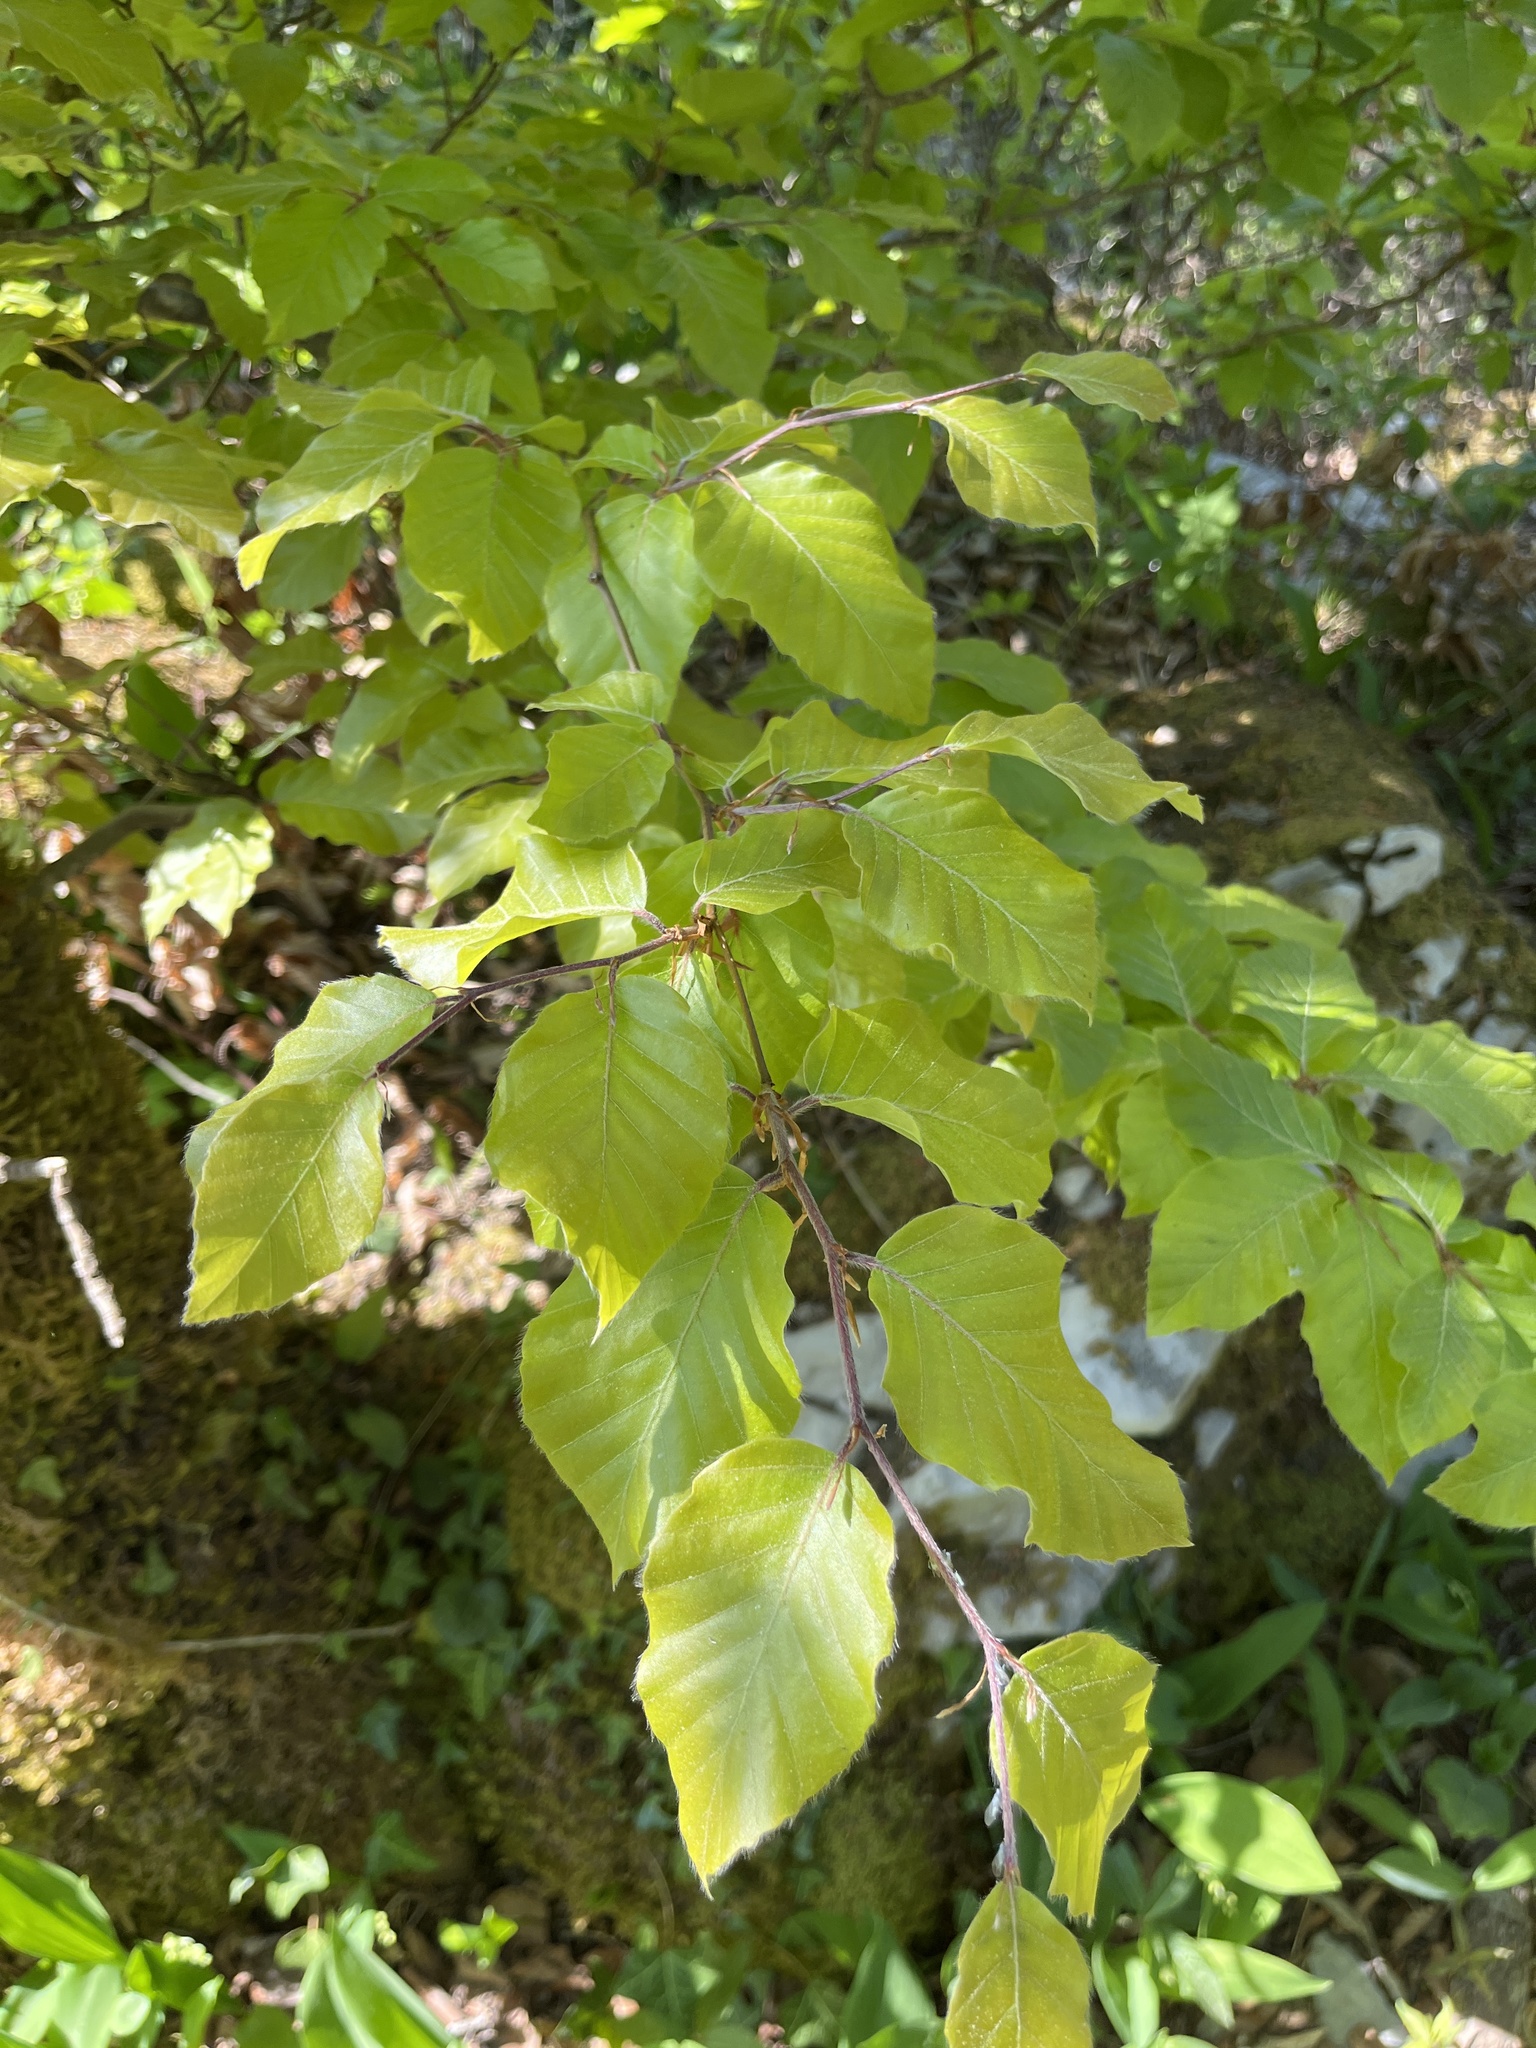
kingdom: Plantae
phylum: Tracheophyta
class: Magnoliopsida
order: Fagales
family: Fagaceae
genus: Fagus
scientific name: Fagus sylvatica
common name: Beech
